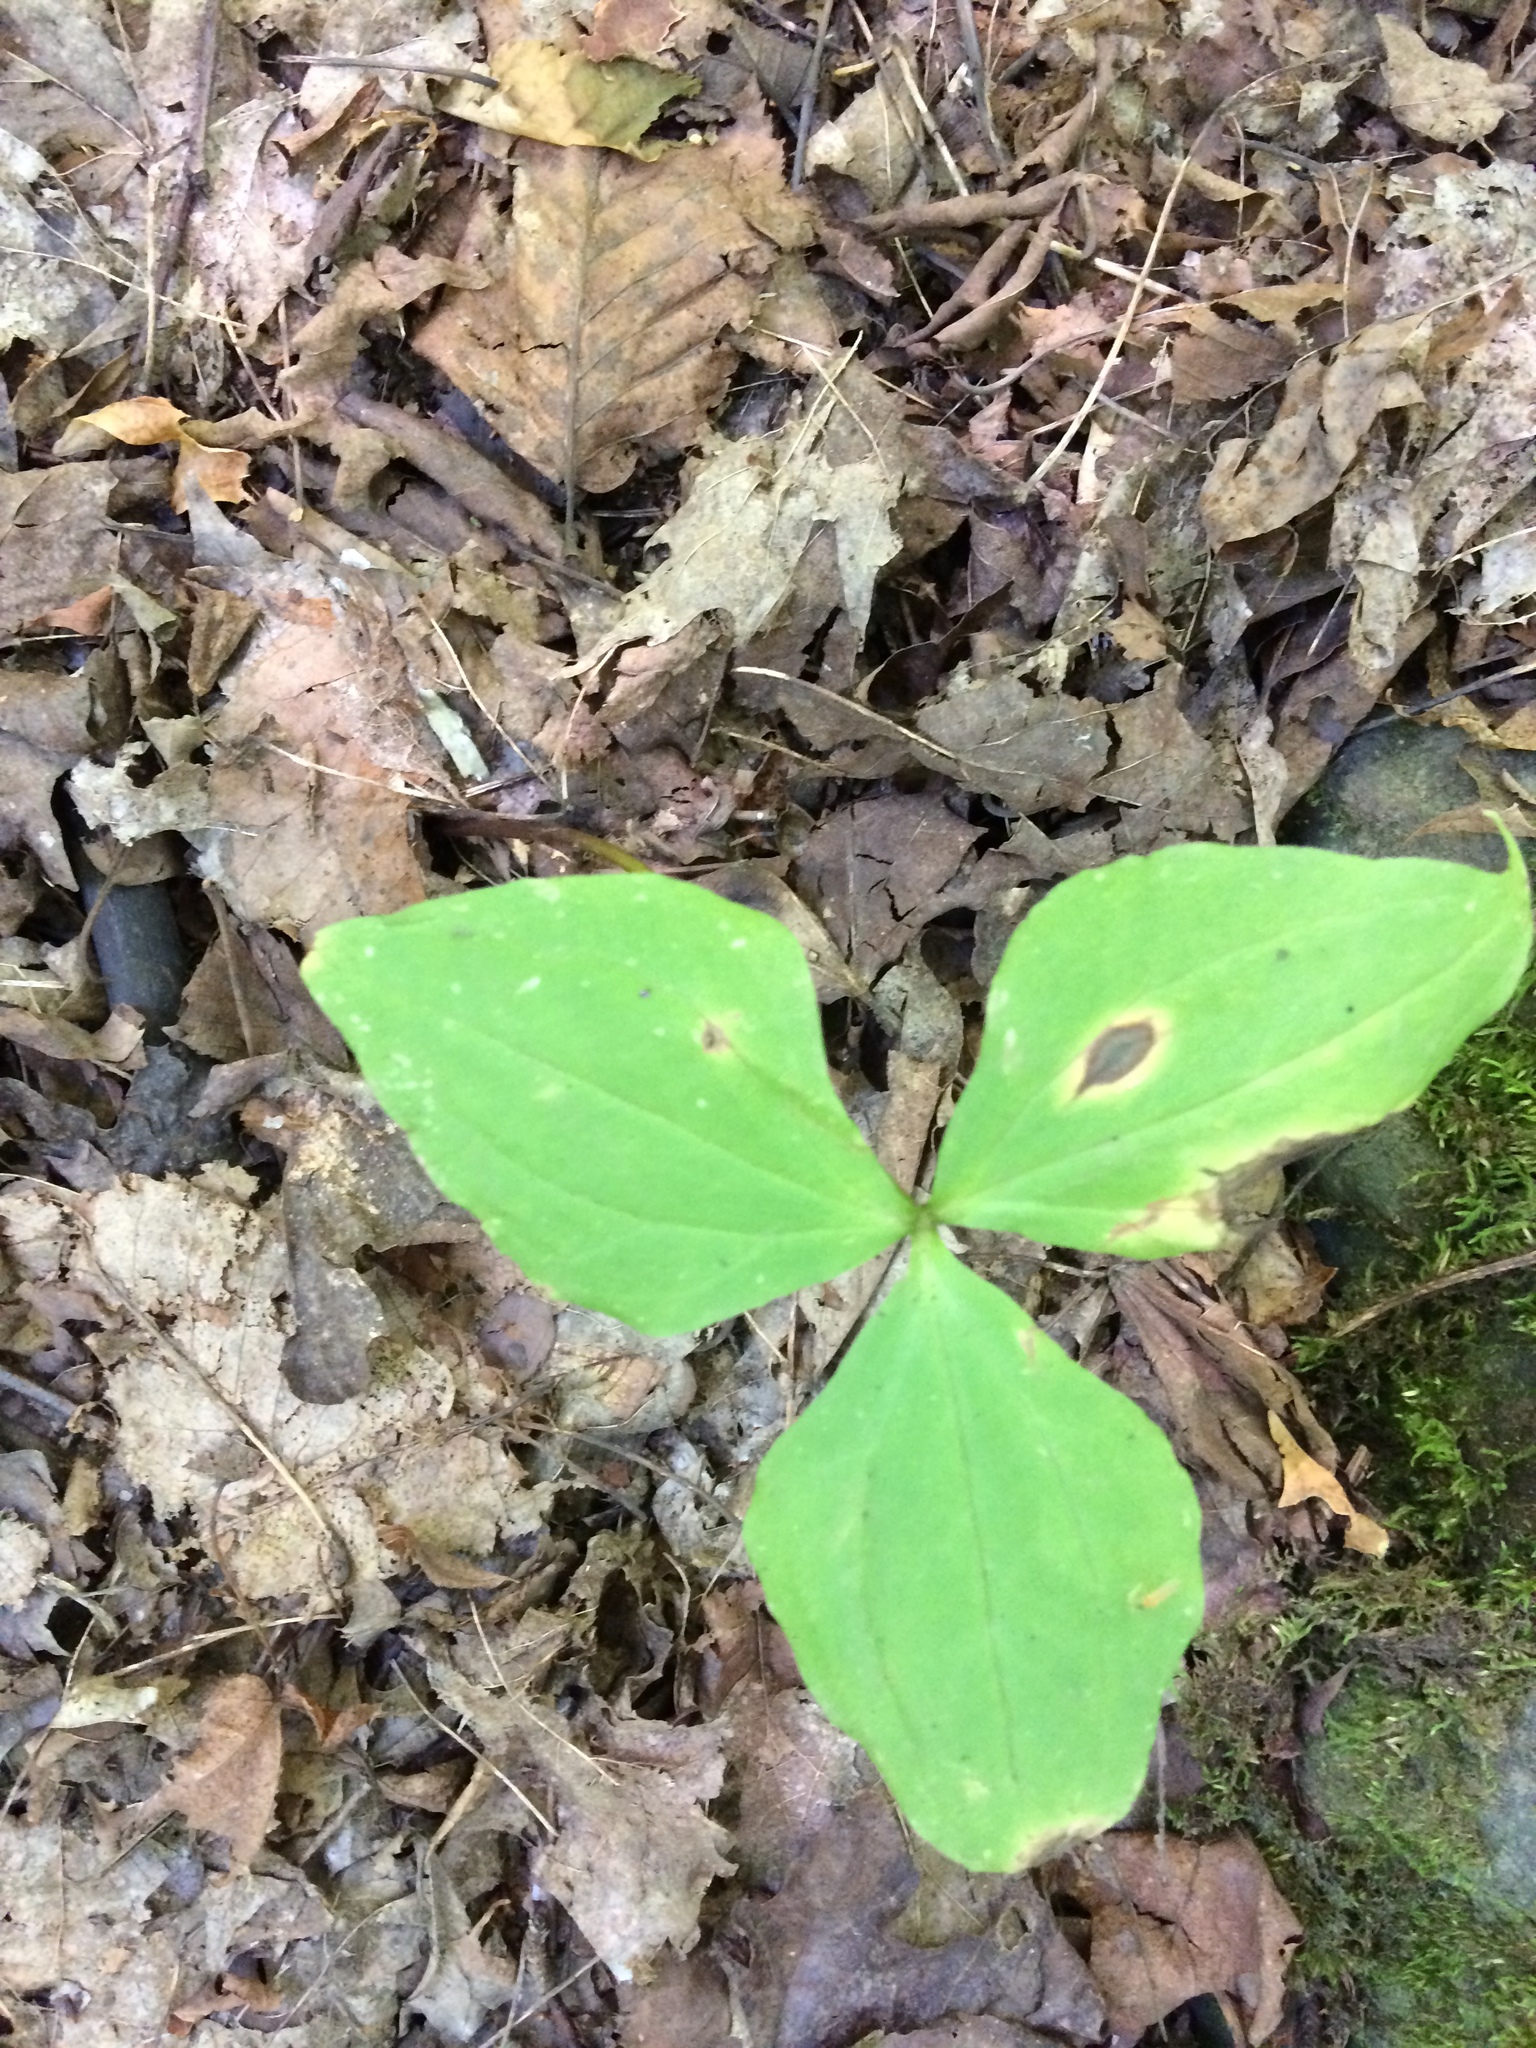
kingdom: Plantae
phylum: Tracheophyta
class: Liliopsida
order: Liliales
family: Melanthiaceae
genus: Trillium
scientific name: Trillium erectum
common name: Purple trillium
